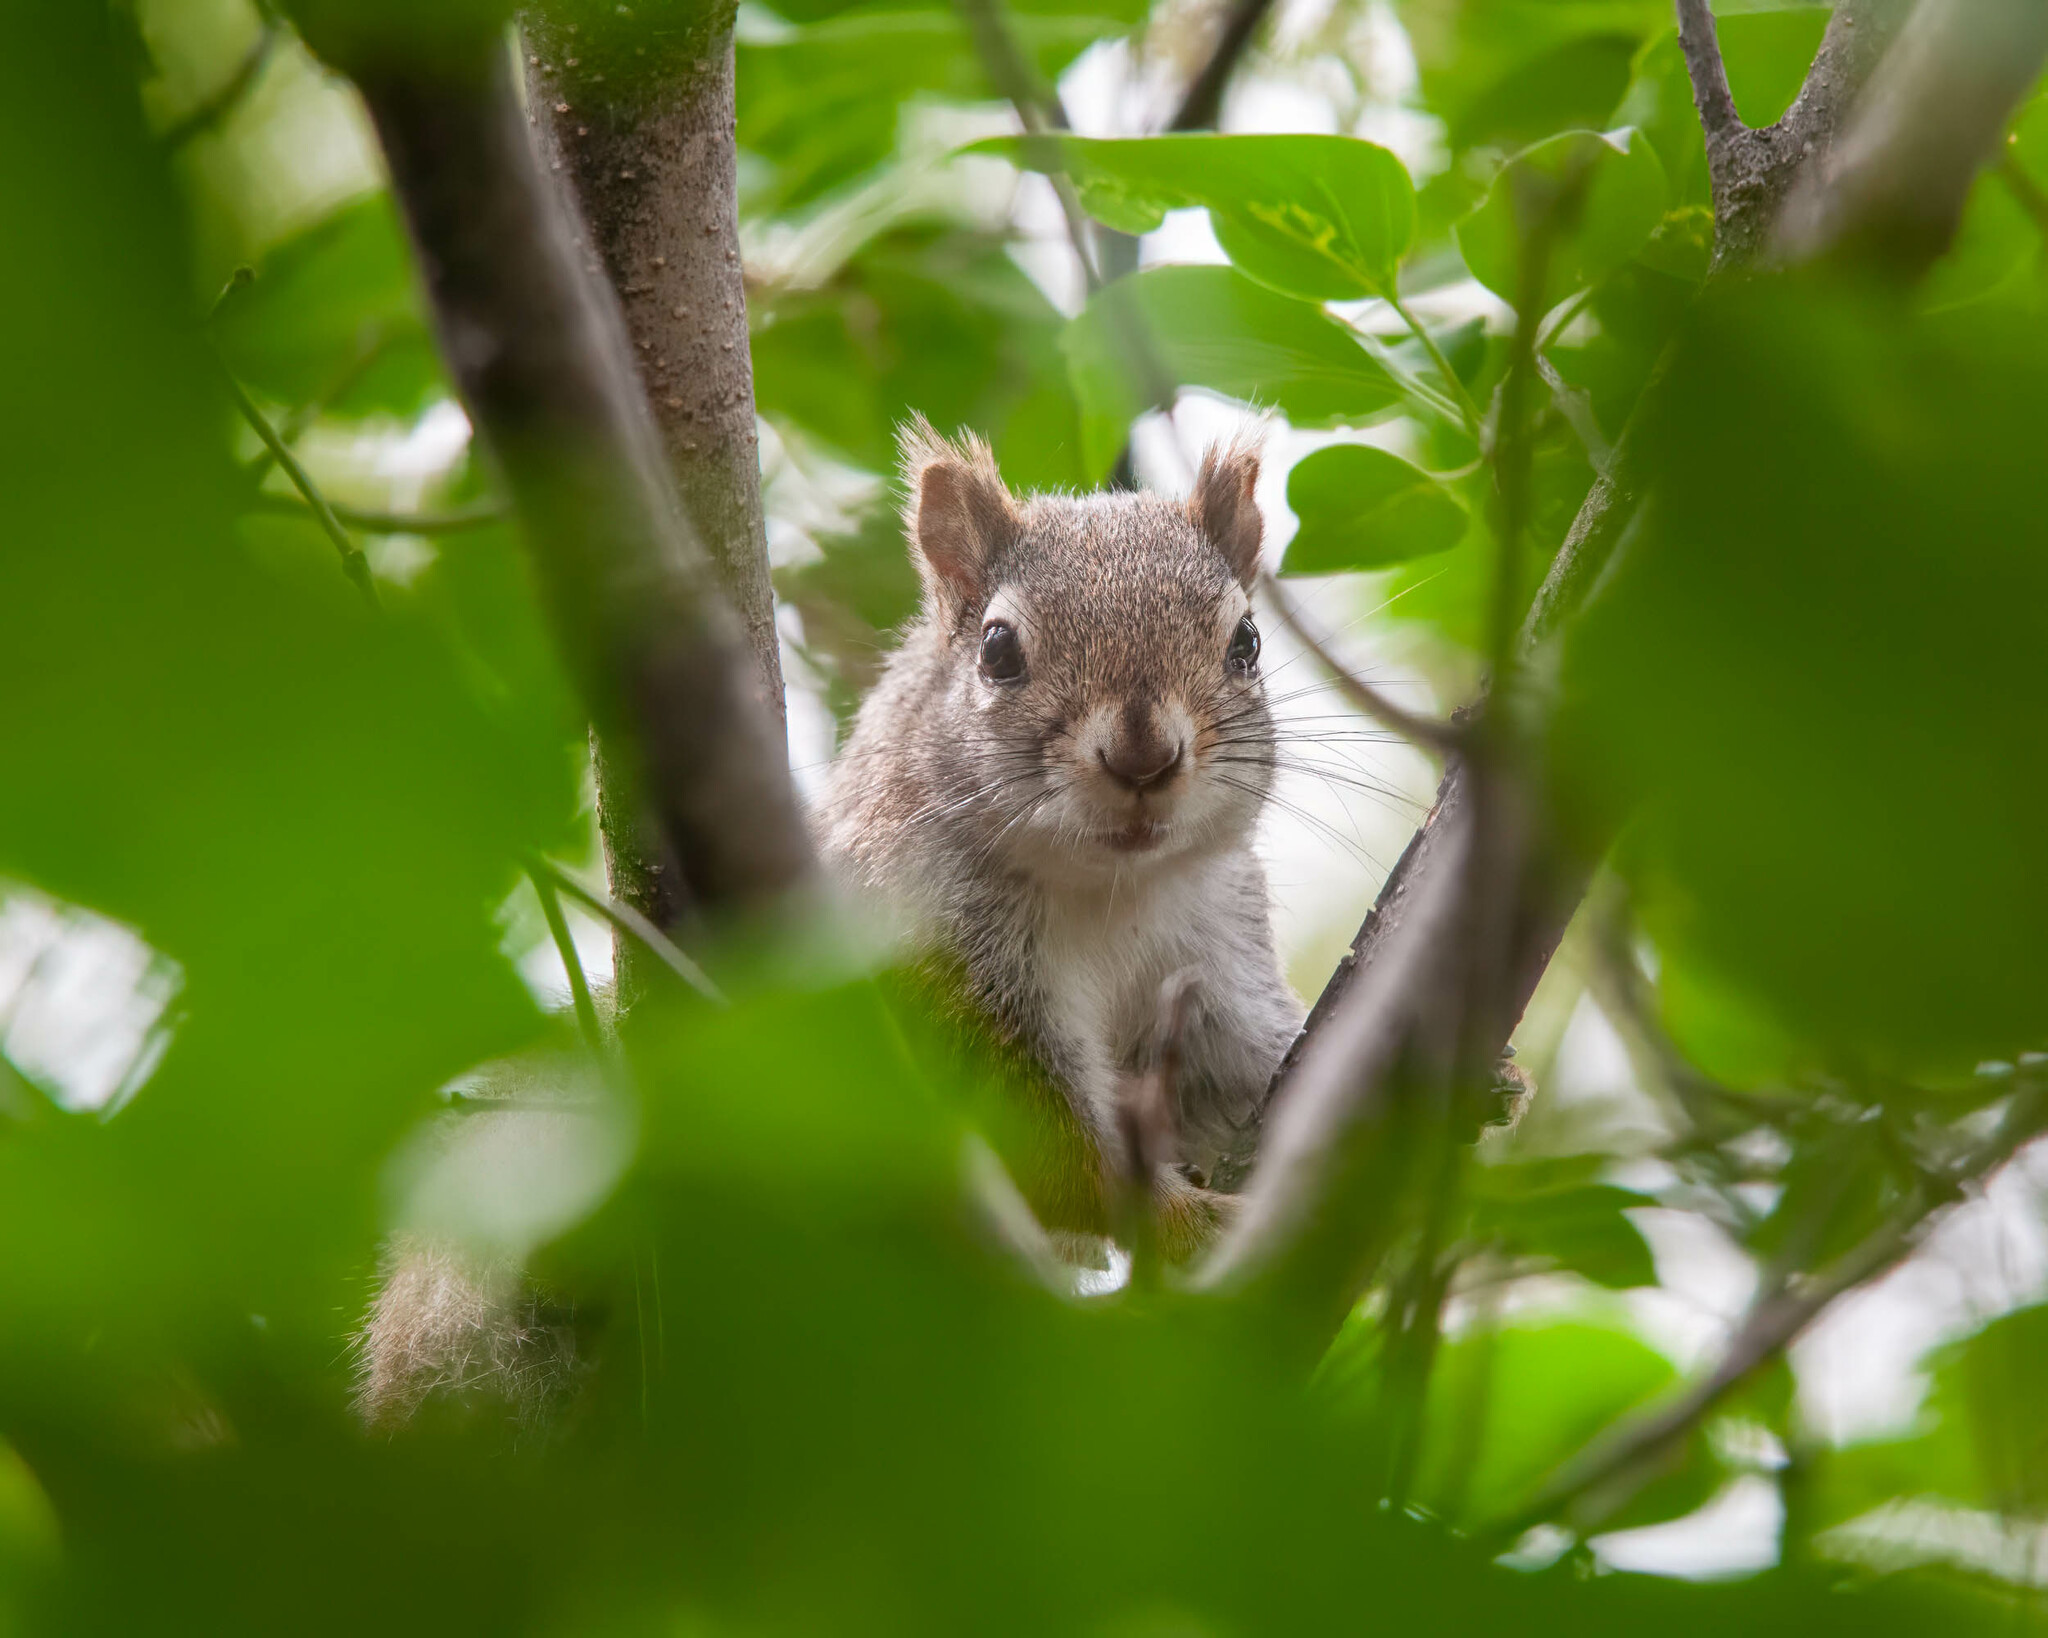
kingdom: Animalia
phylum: Chordata
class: Mammalia
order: Rodentia
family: Sciuridae
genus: Tamiasciurus
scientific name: Tamiasciurus hudsonicus
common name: Red squirrel
